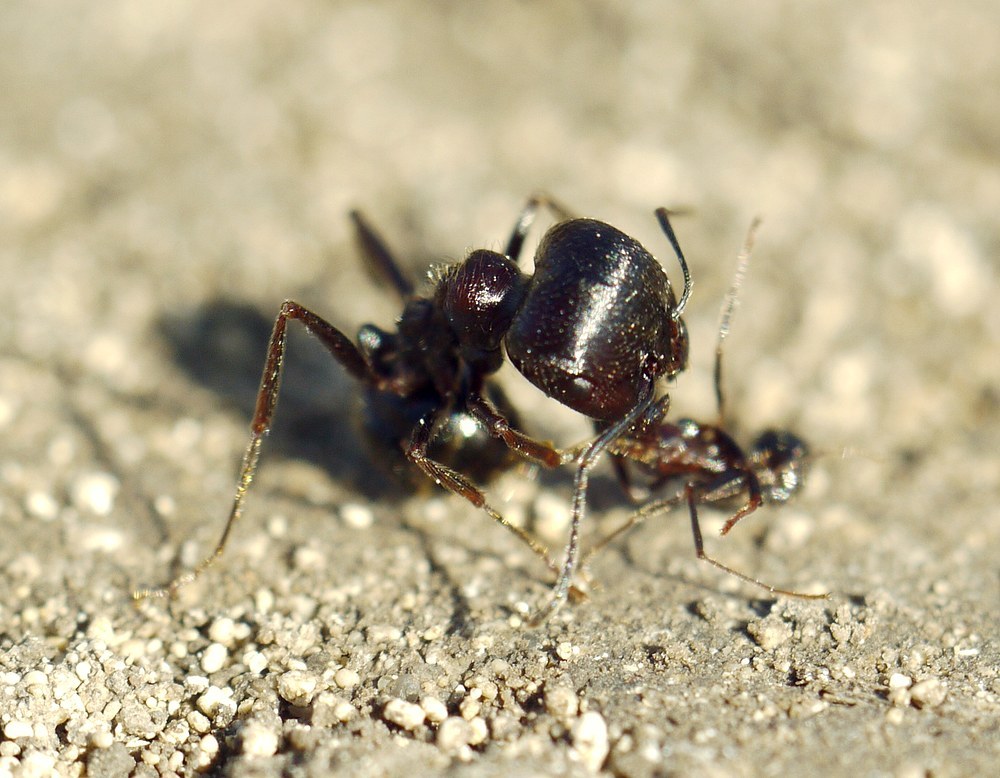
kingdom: Animalia
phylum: Arthropoda
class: Insecta
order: Hymenoptera
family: Formicidae
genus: Messor
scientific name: Messor structor
